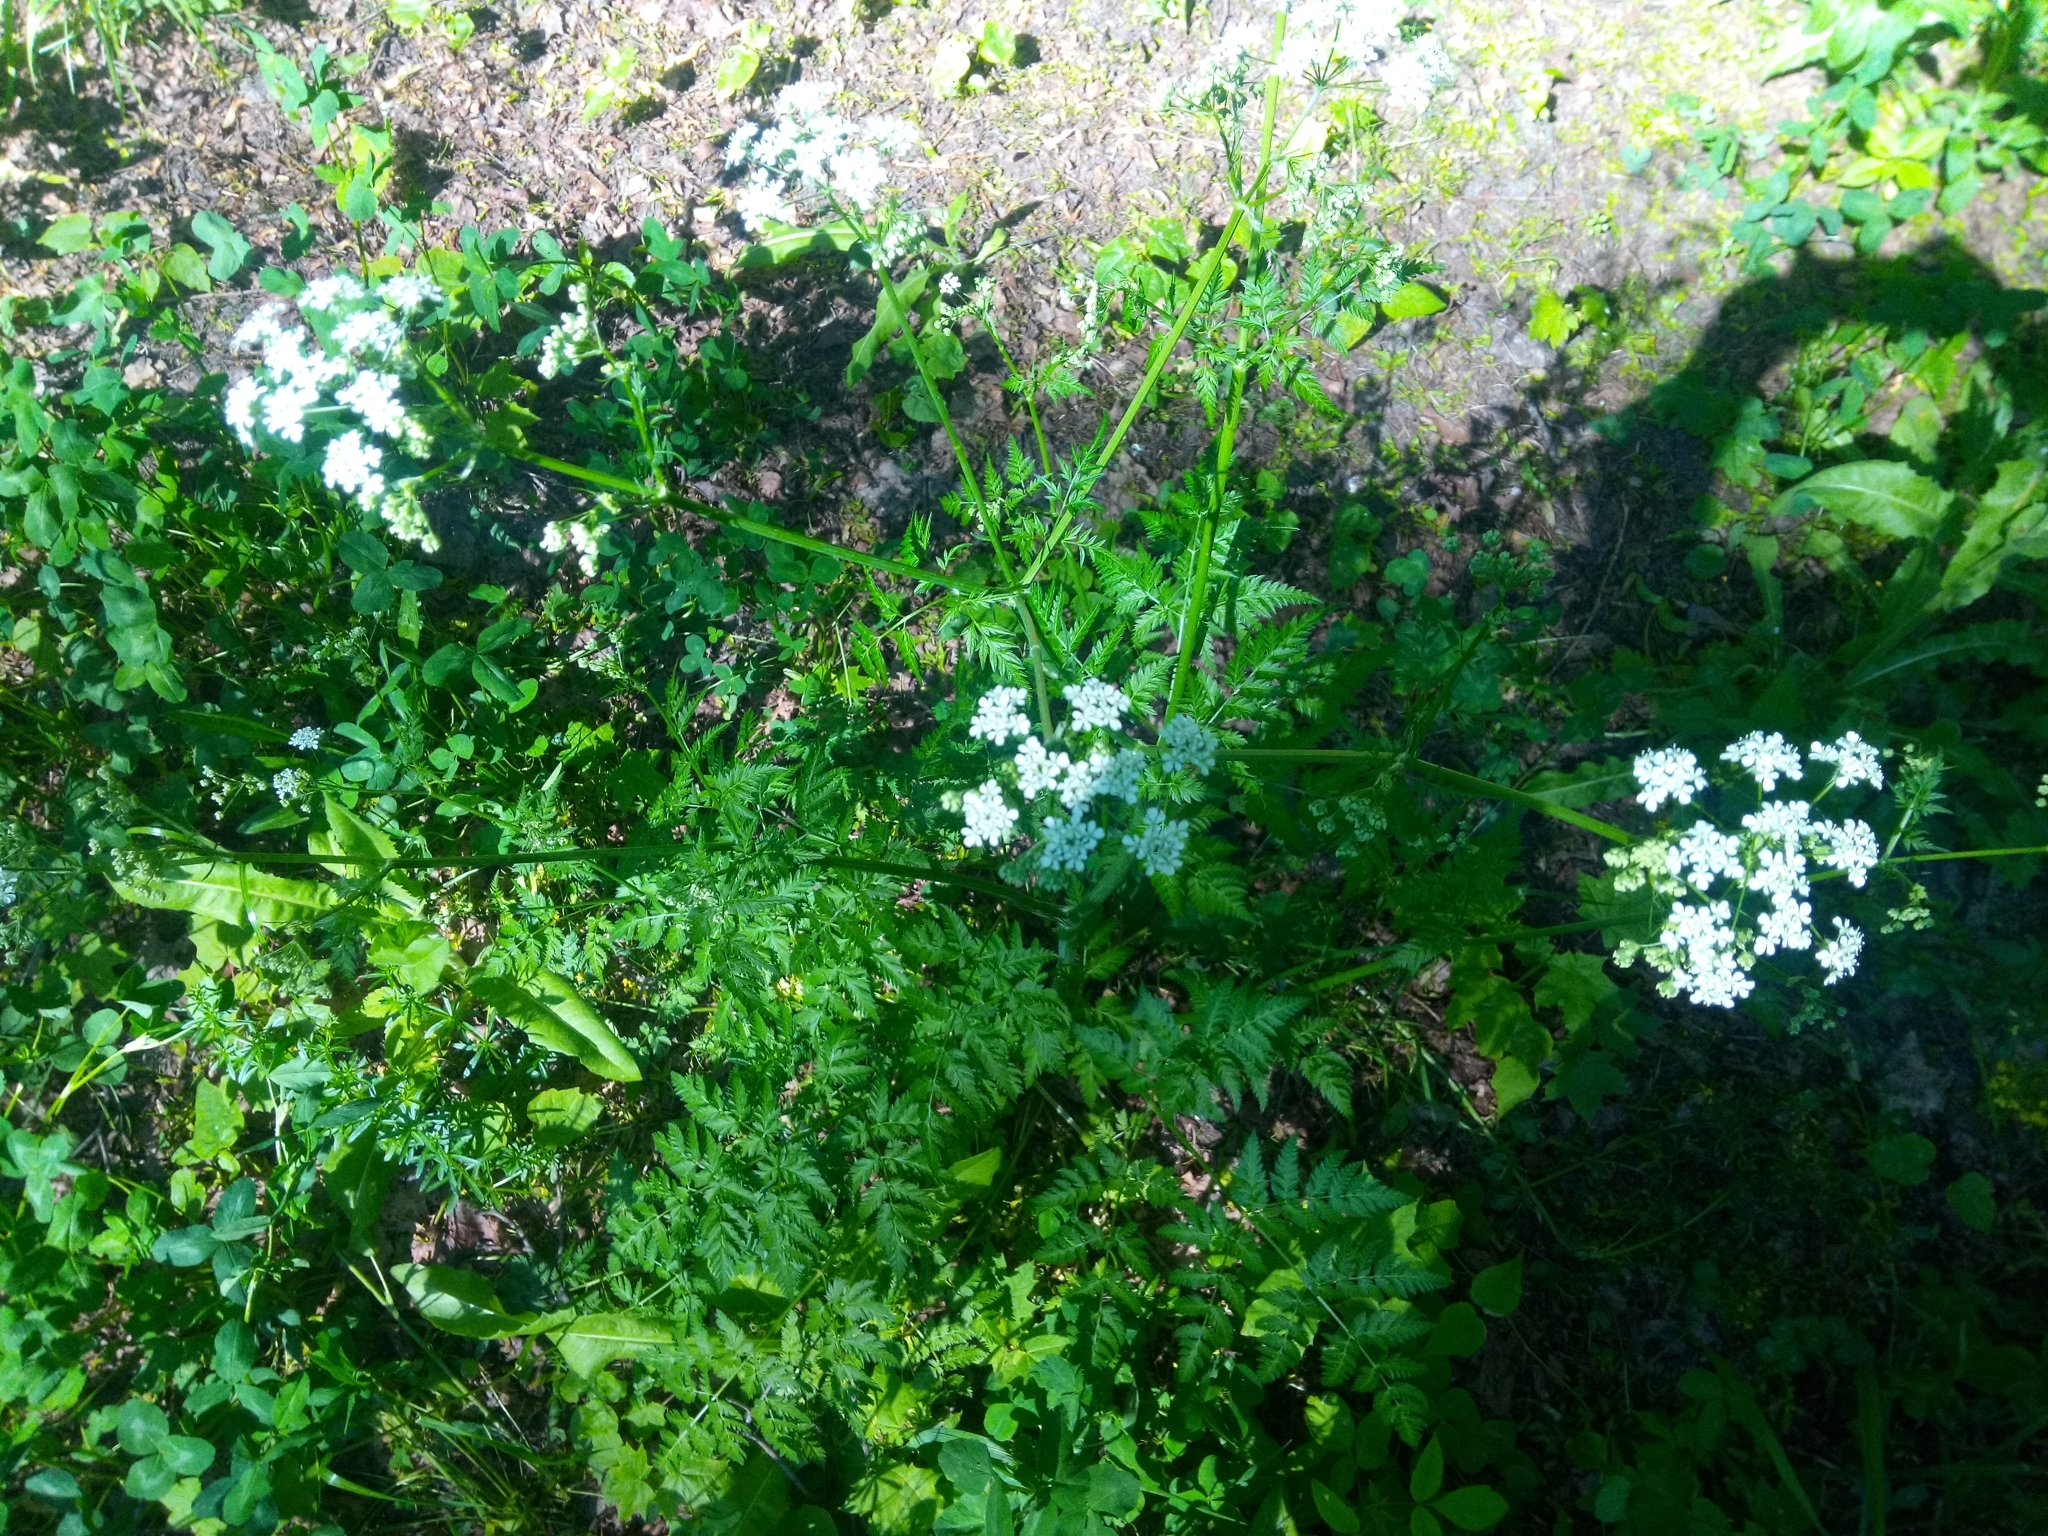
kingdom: Plantae
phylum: Tracheophyta
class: Magnoliopsida
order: Apiales
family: Apiaceae
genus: Anthriscus
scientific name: Anthriscus sylvestris
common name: Cow parsley
